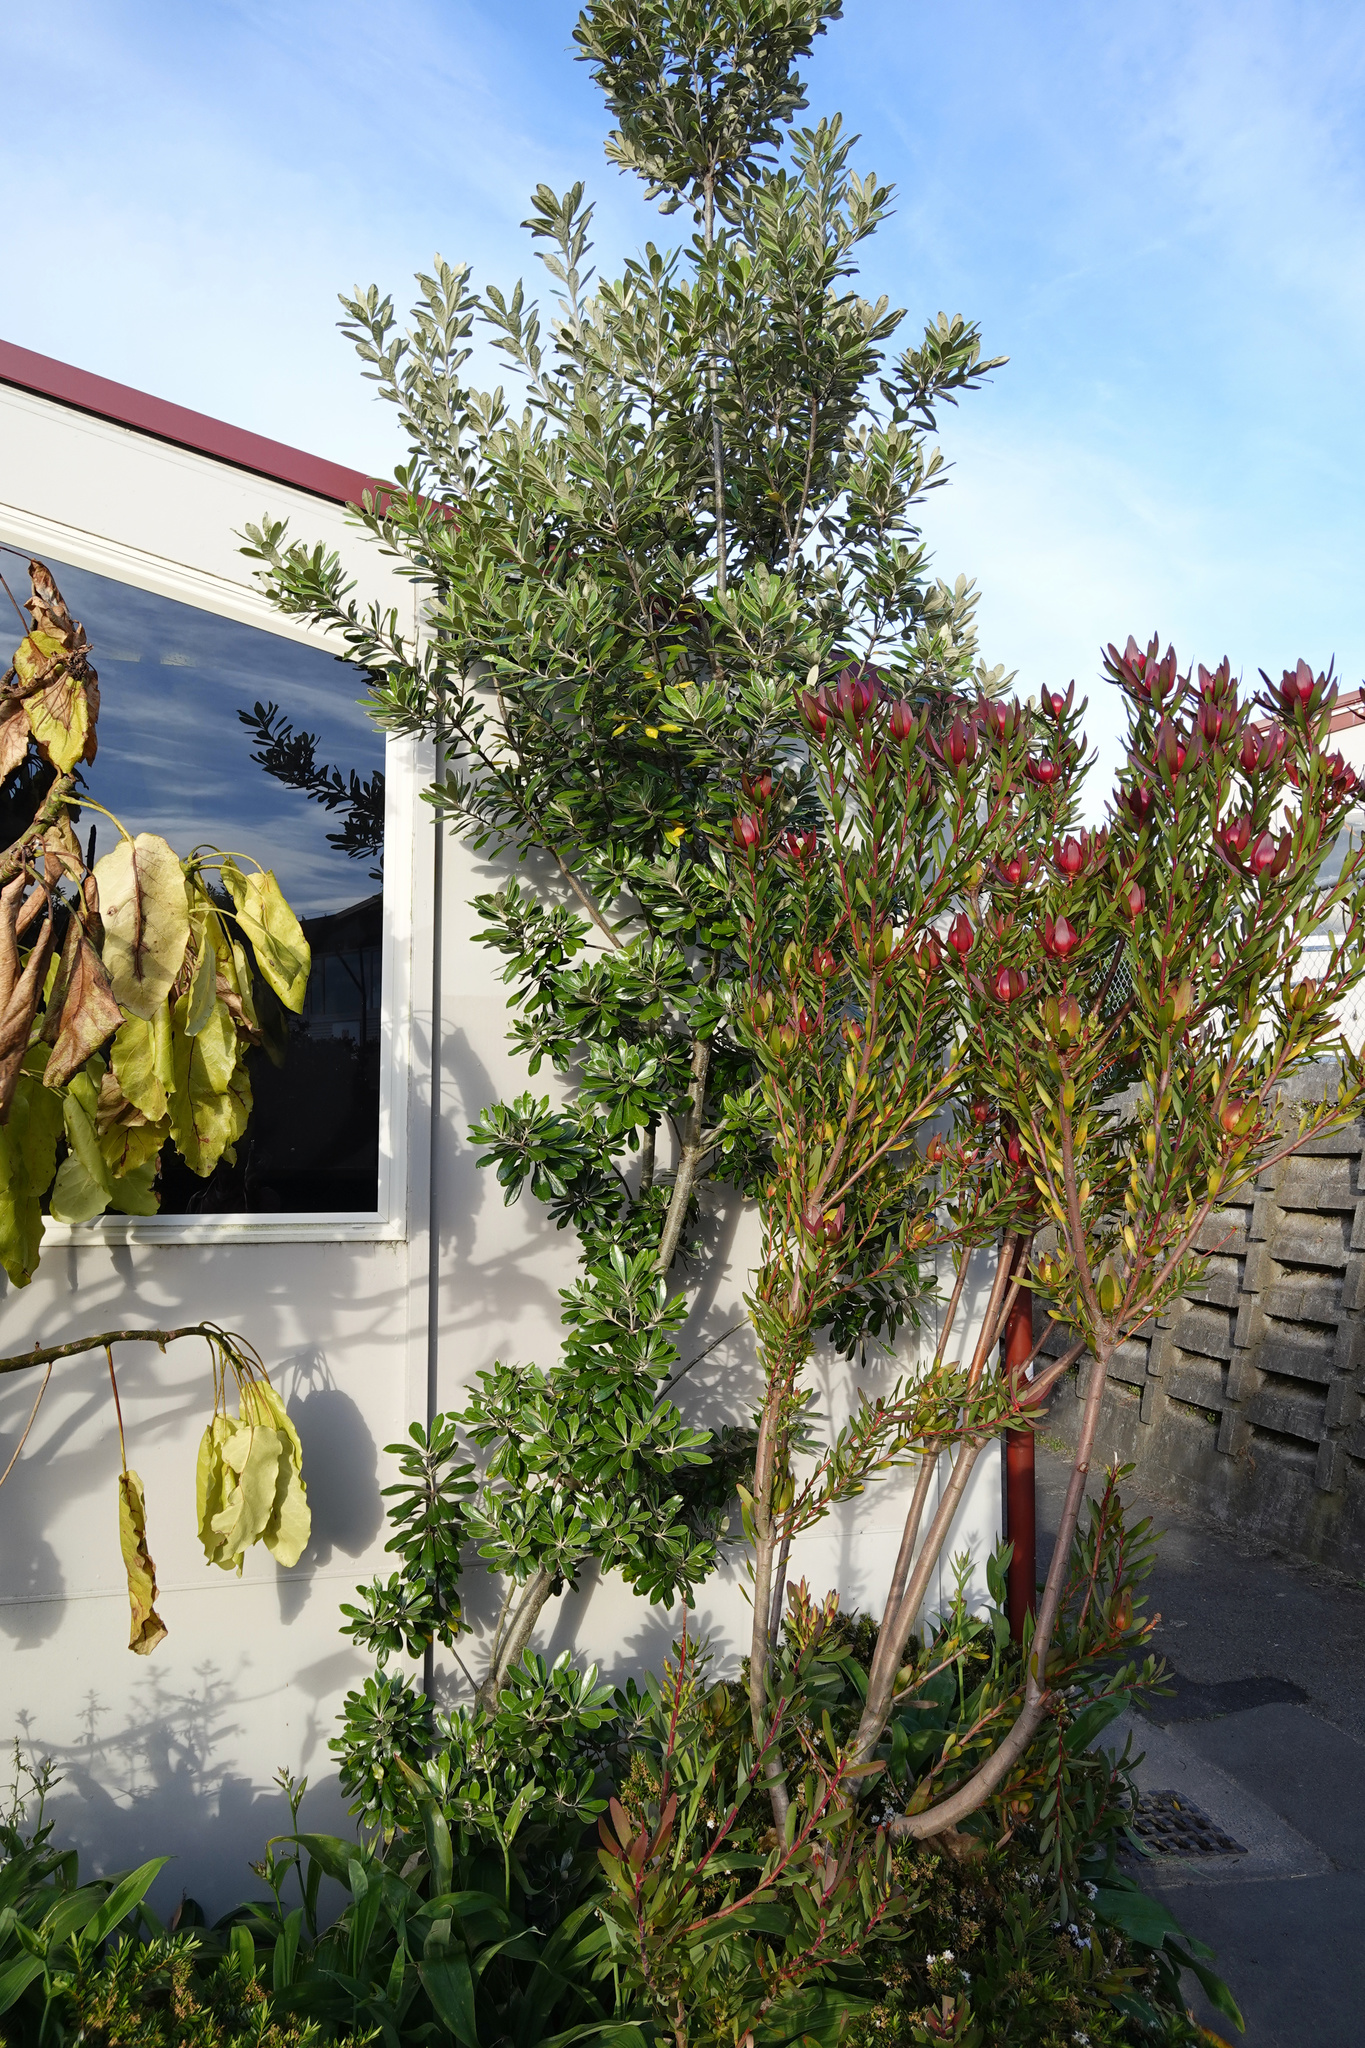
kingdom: Plantae
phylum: Tracheophyta
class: Magnoliopsida
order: Apiales
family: Pittosporaceae
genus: Pittosporum
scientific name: Pittosporum crassifolium
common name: Karo
